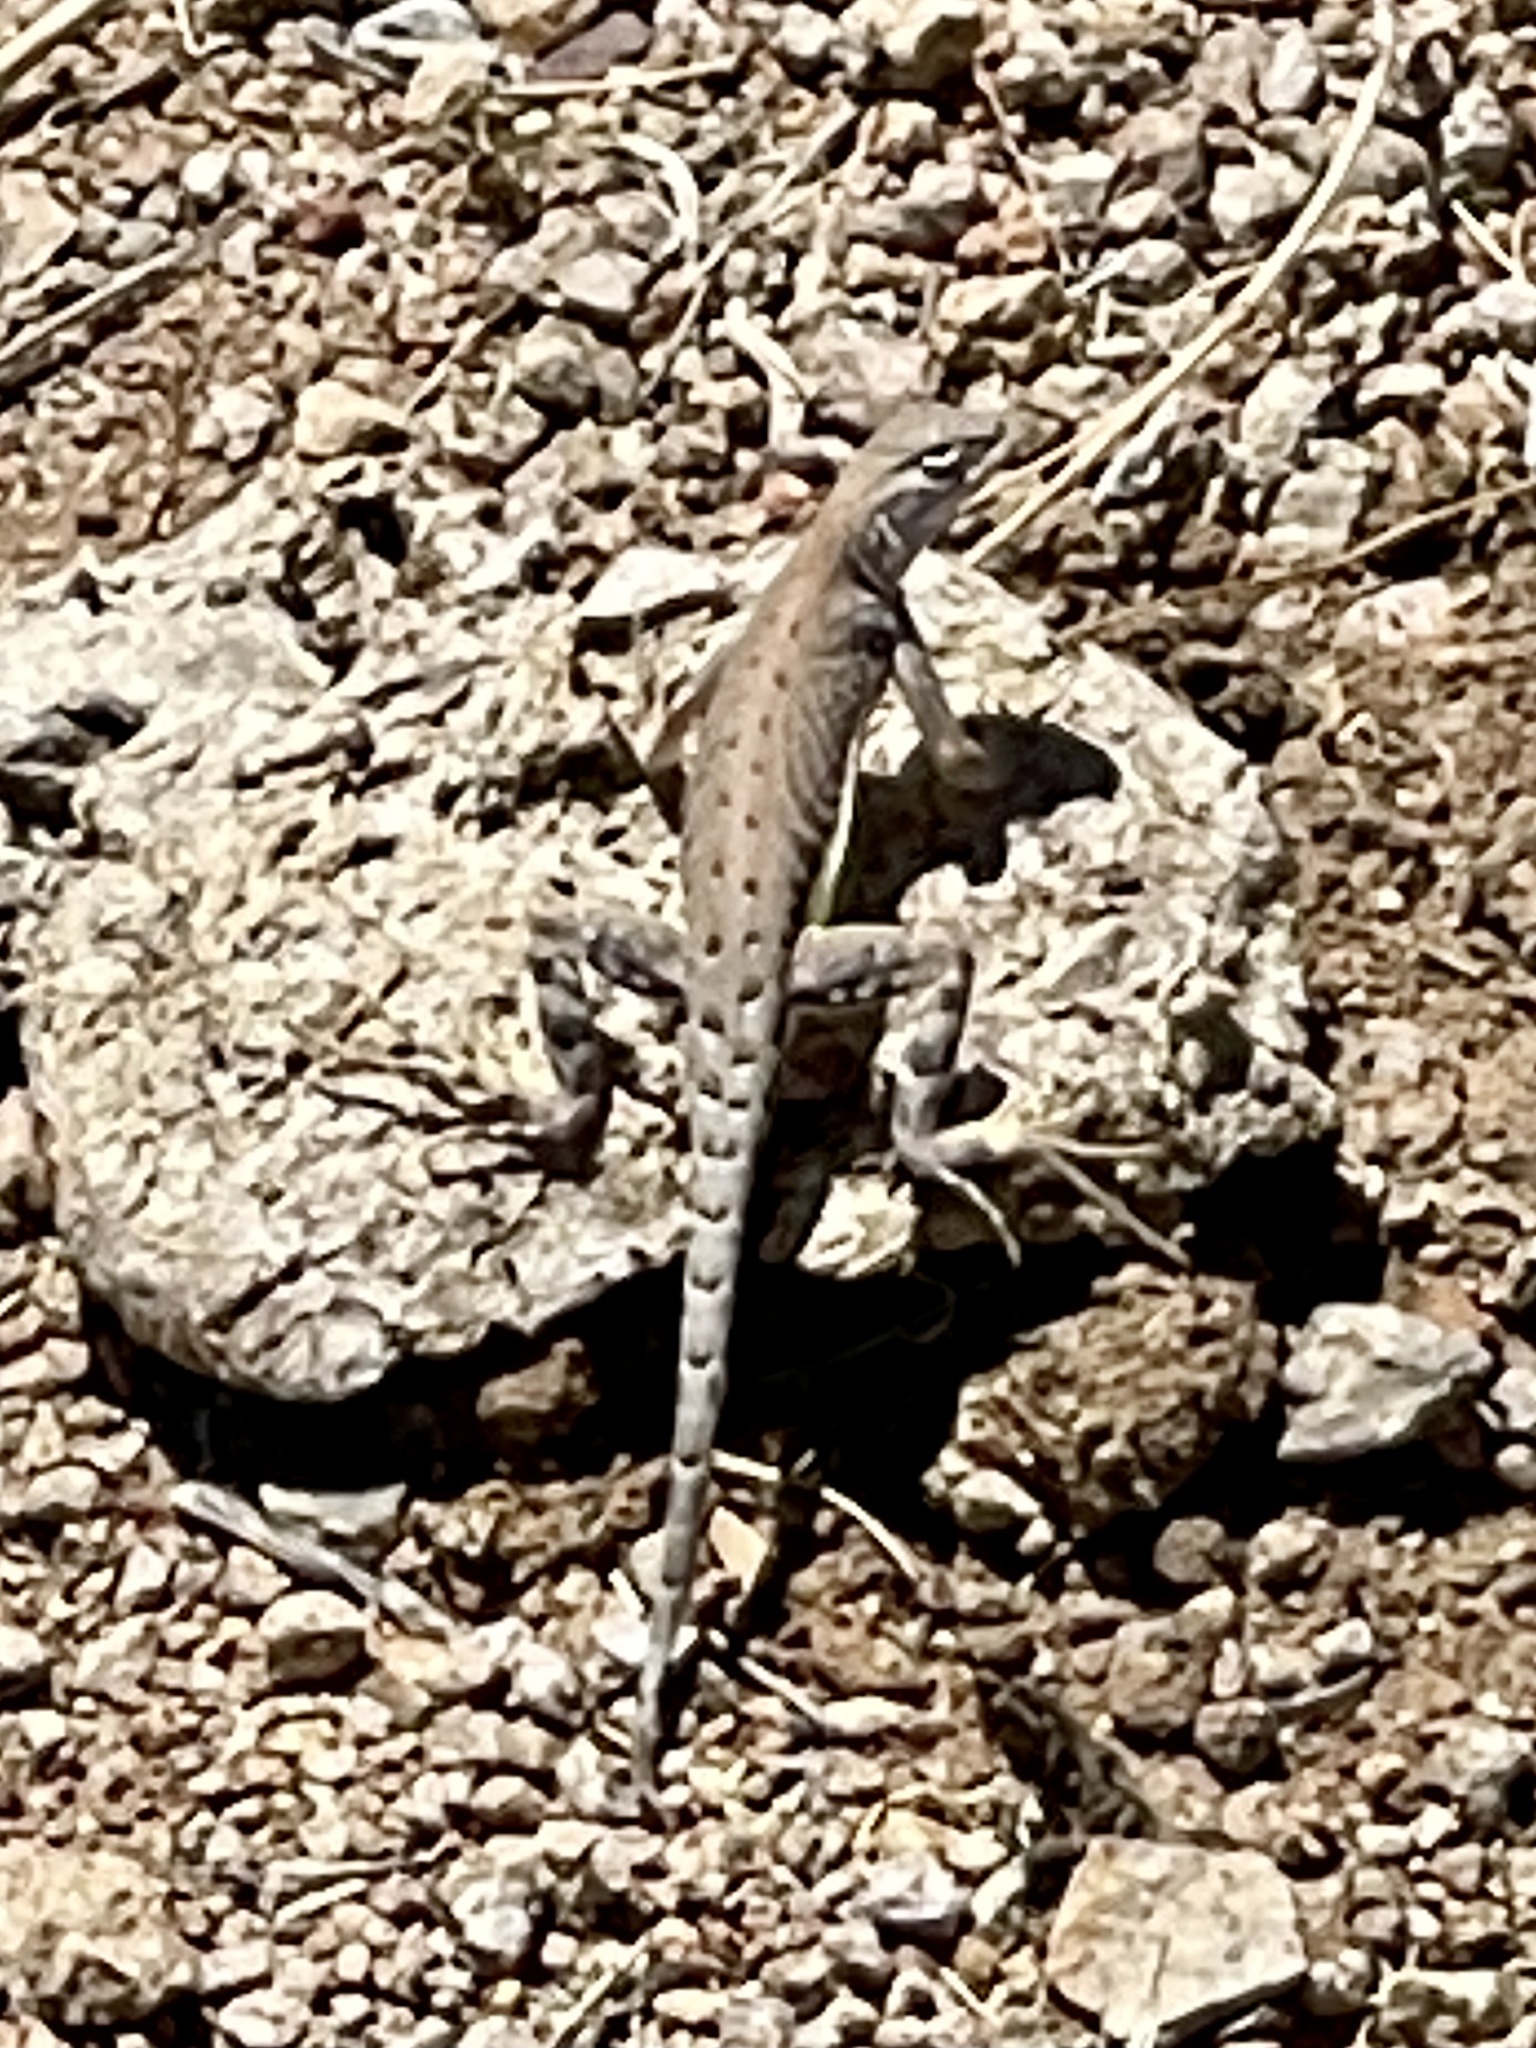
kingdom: Animalia
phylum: Chordata
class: Squamata
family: Phrynosomatidae
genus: Cophosaurus
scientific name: Cophosaurus texanus
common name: Greater earless lizard
